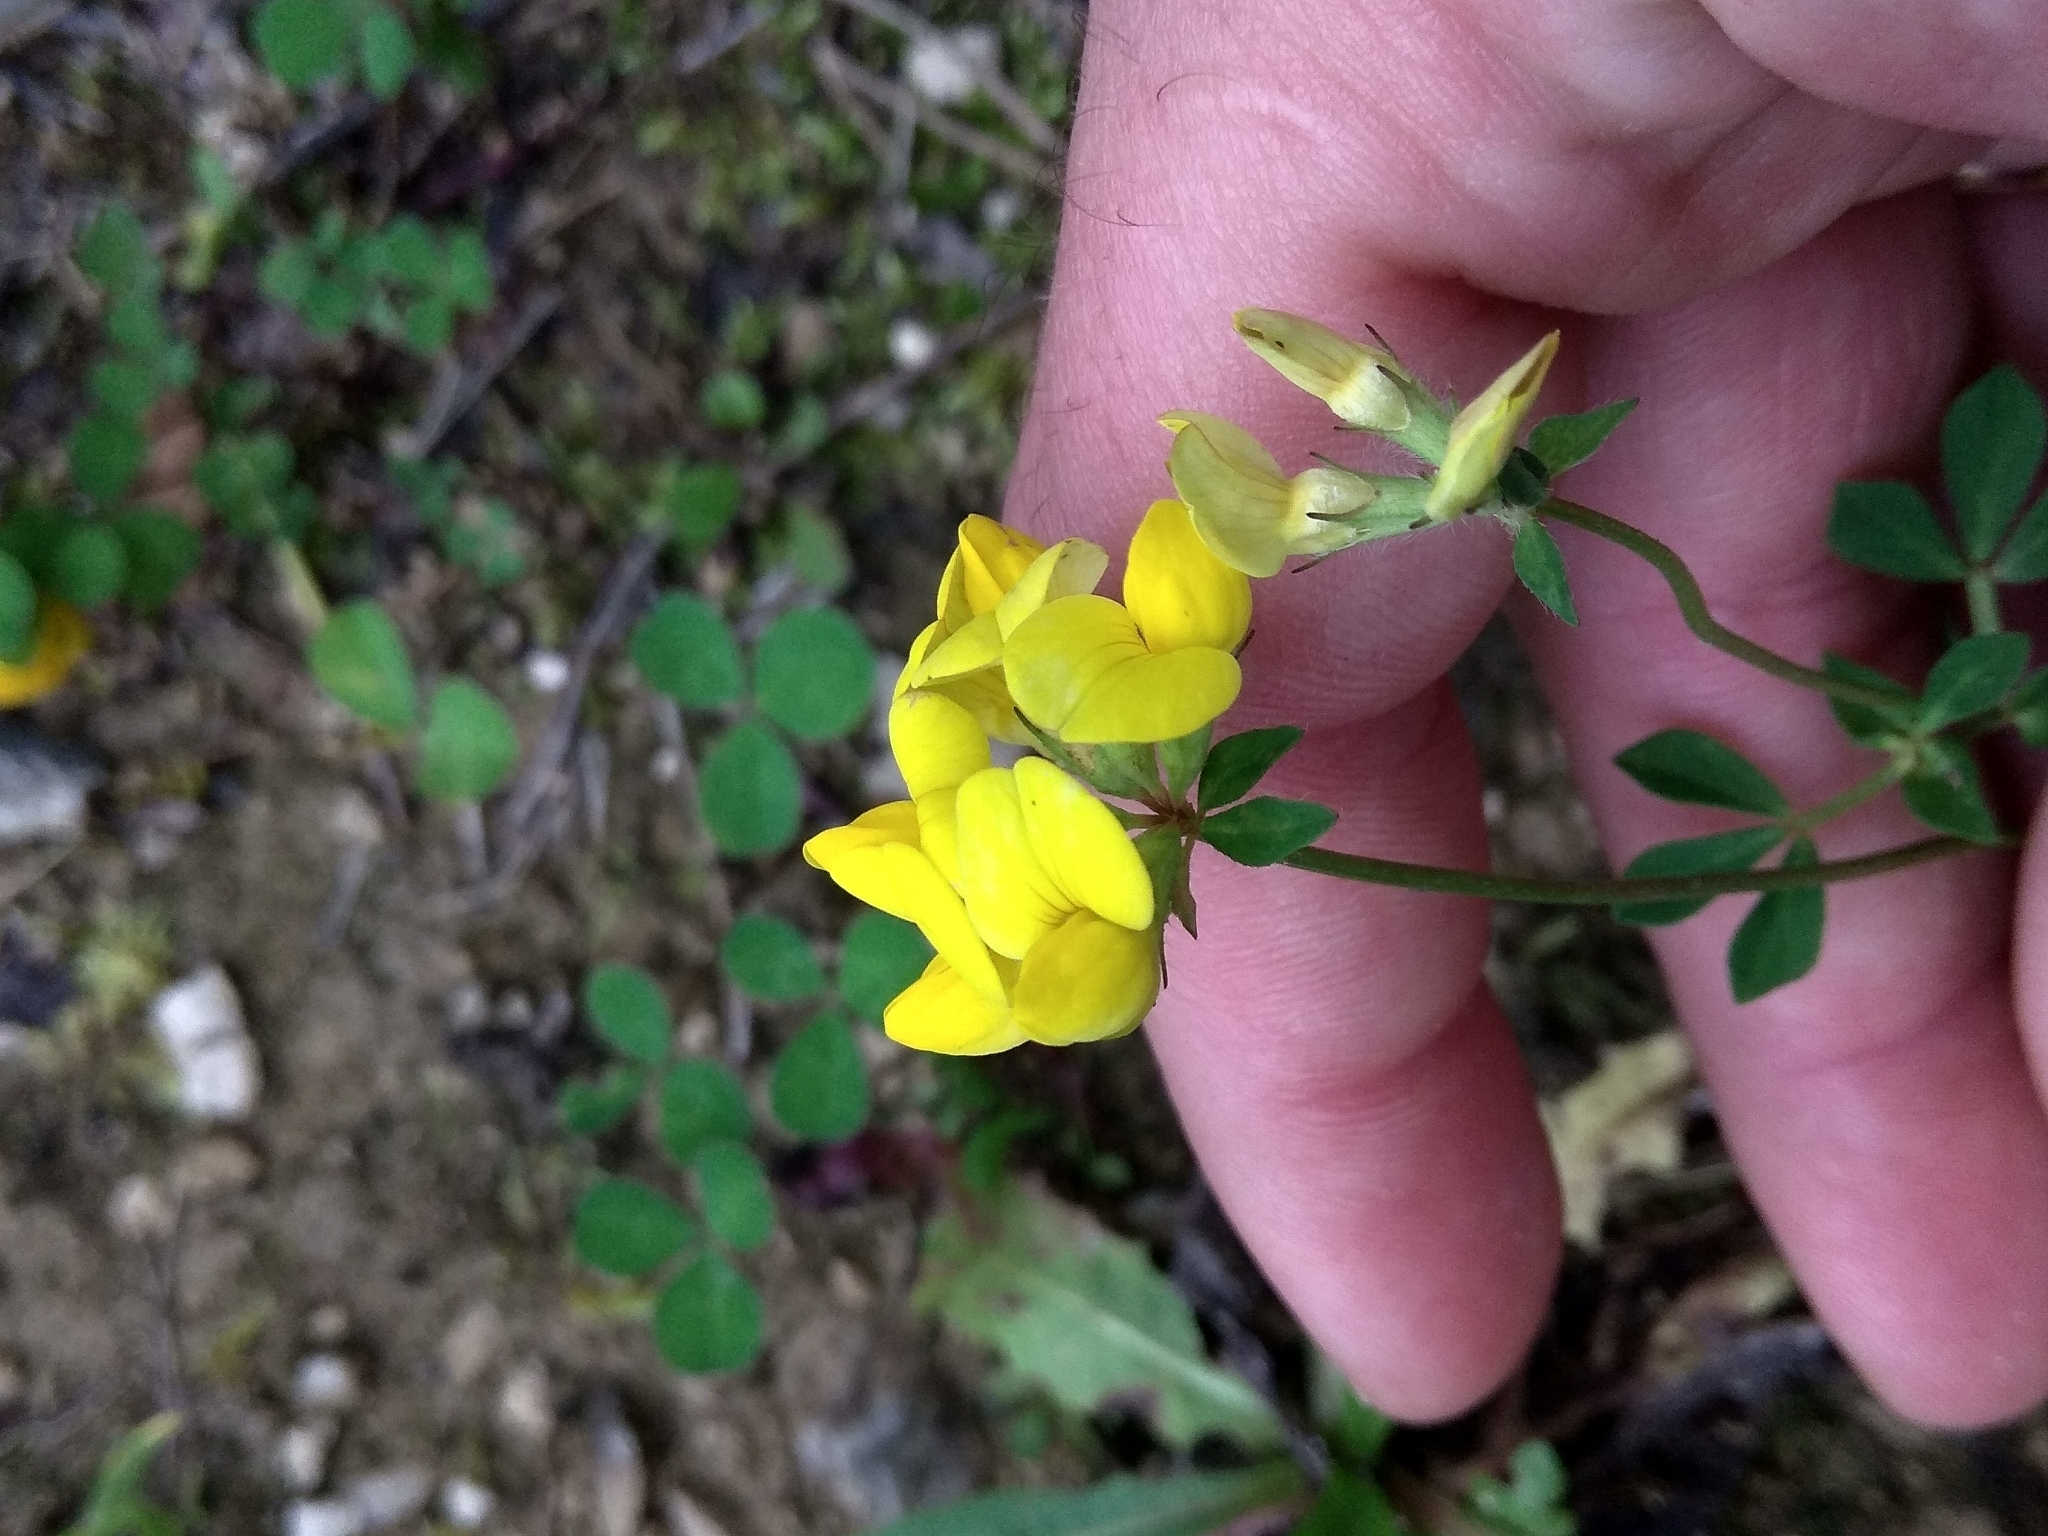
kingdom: Plantae
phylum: Tracheophyta
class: Magnoliopsida
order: Fabales
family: Fabaceae
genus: Lotus
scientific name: Lotus corniculatus
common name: Common bird's-foot-trefoil
